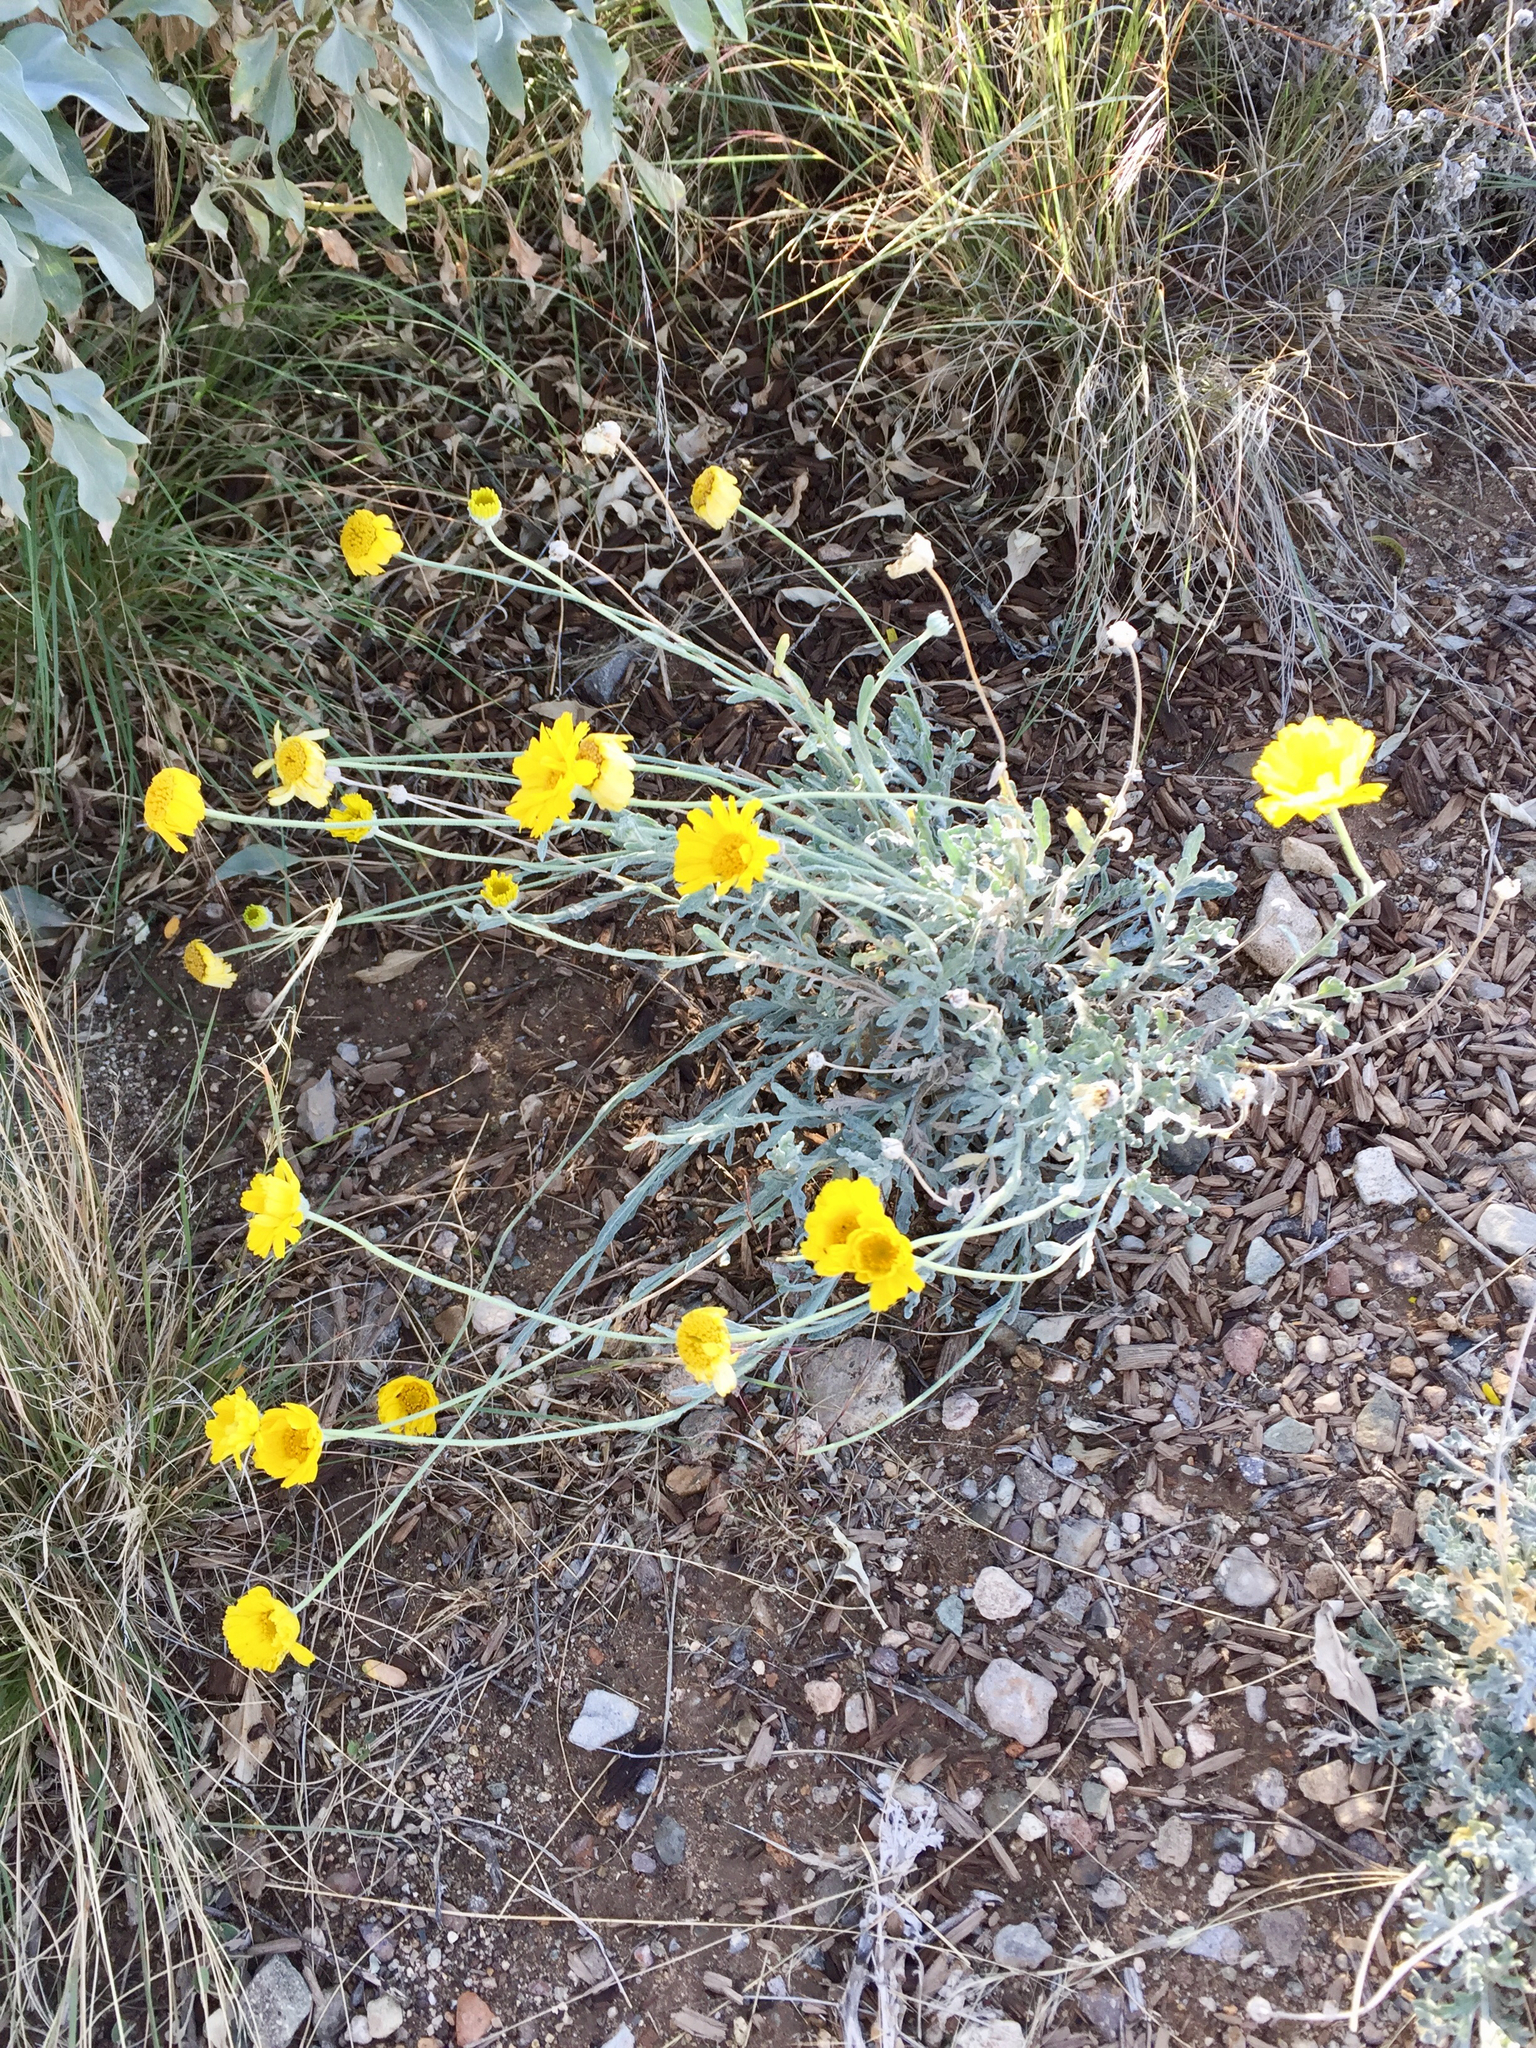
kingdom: Plantae
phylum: Tracheophyta
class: Magnoliopsida
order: Asterales
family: Asteraceae
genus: Baileya
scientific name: Baileya multiradiata
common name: Desert-marigold
